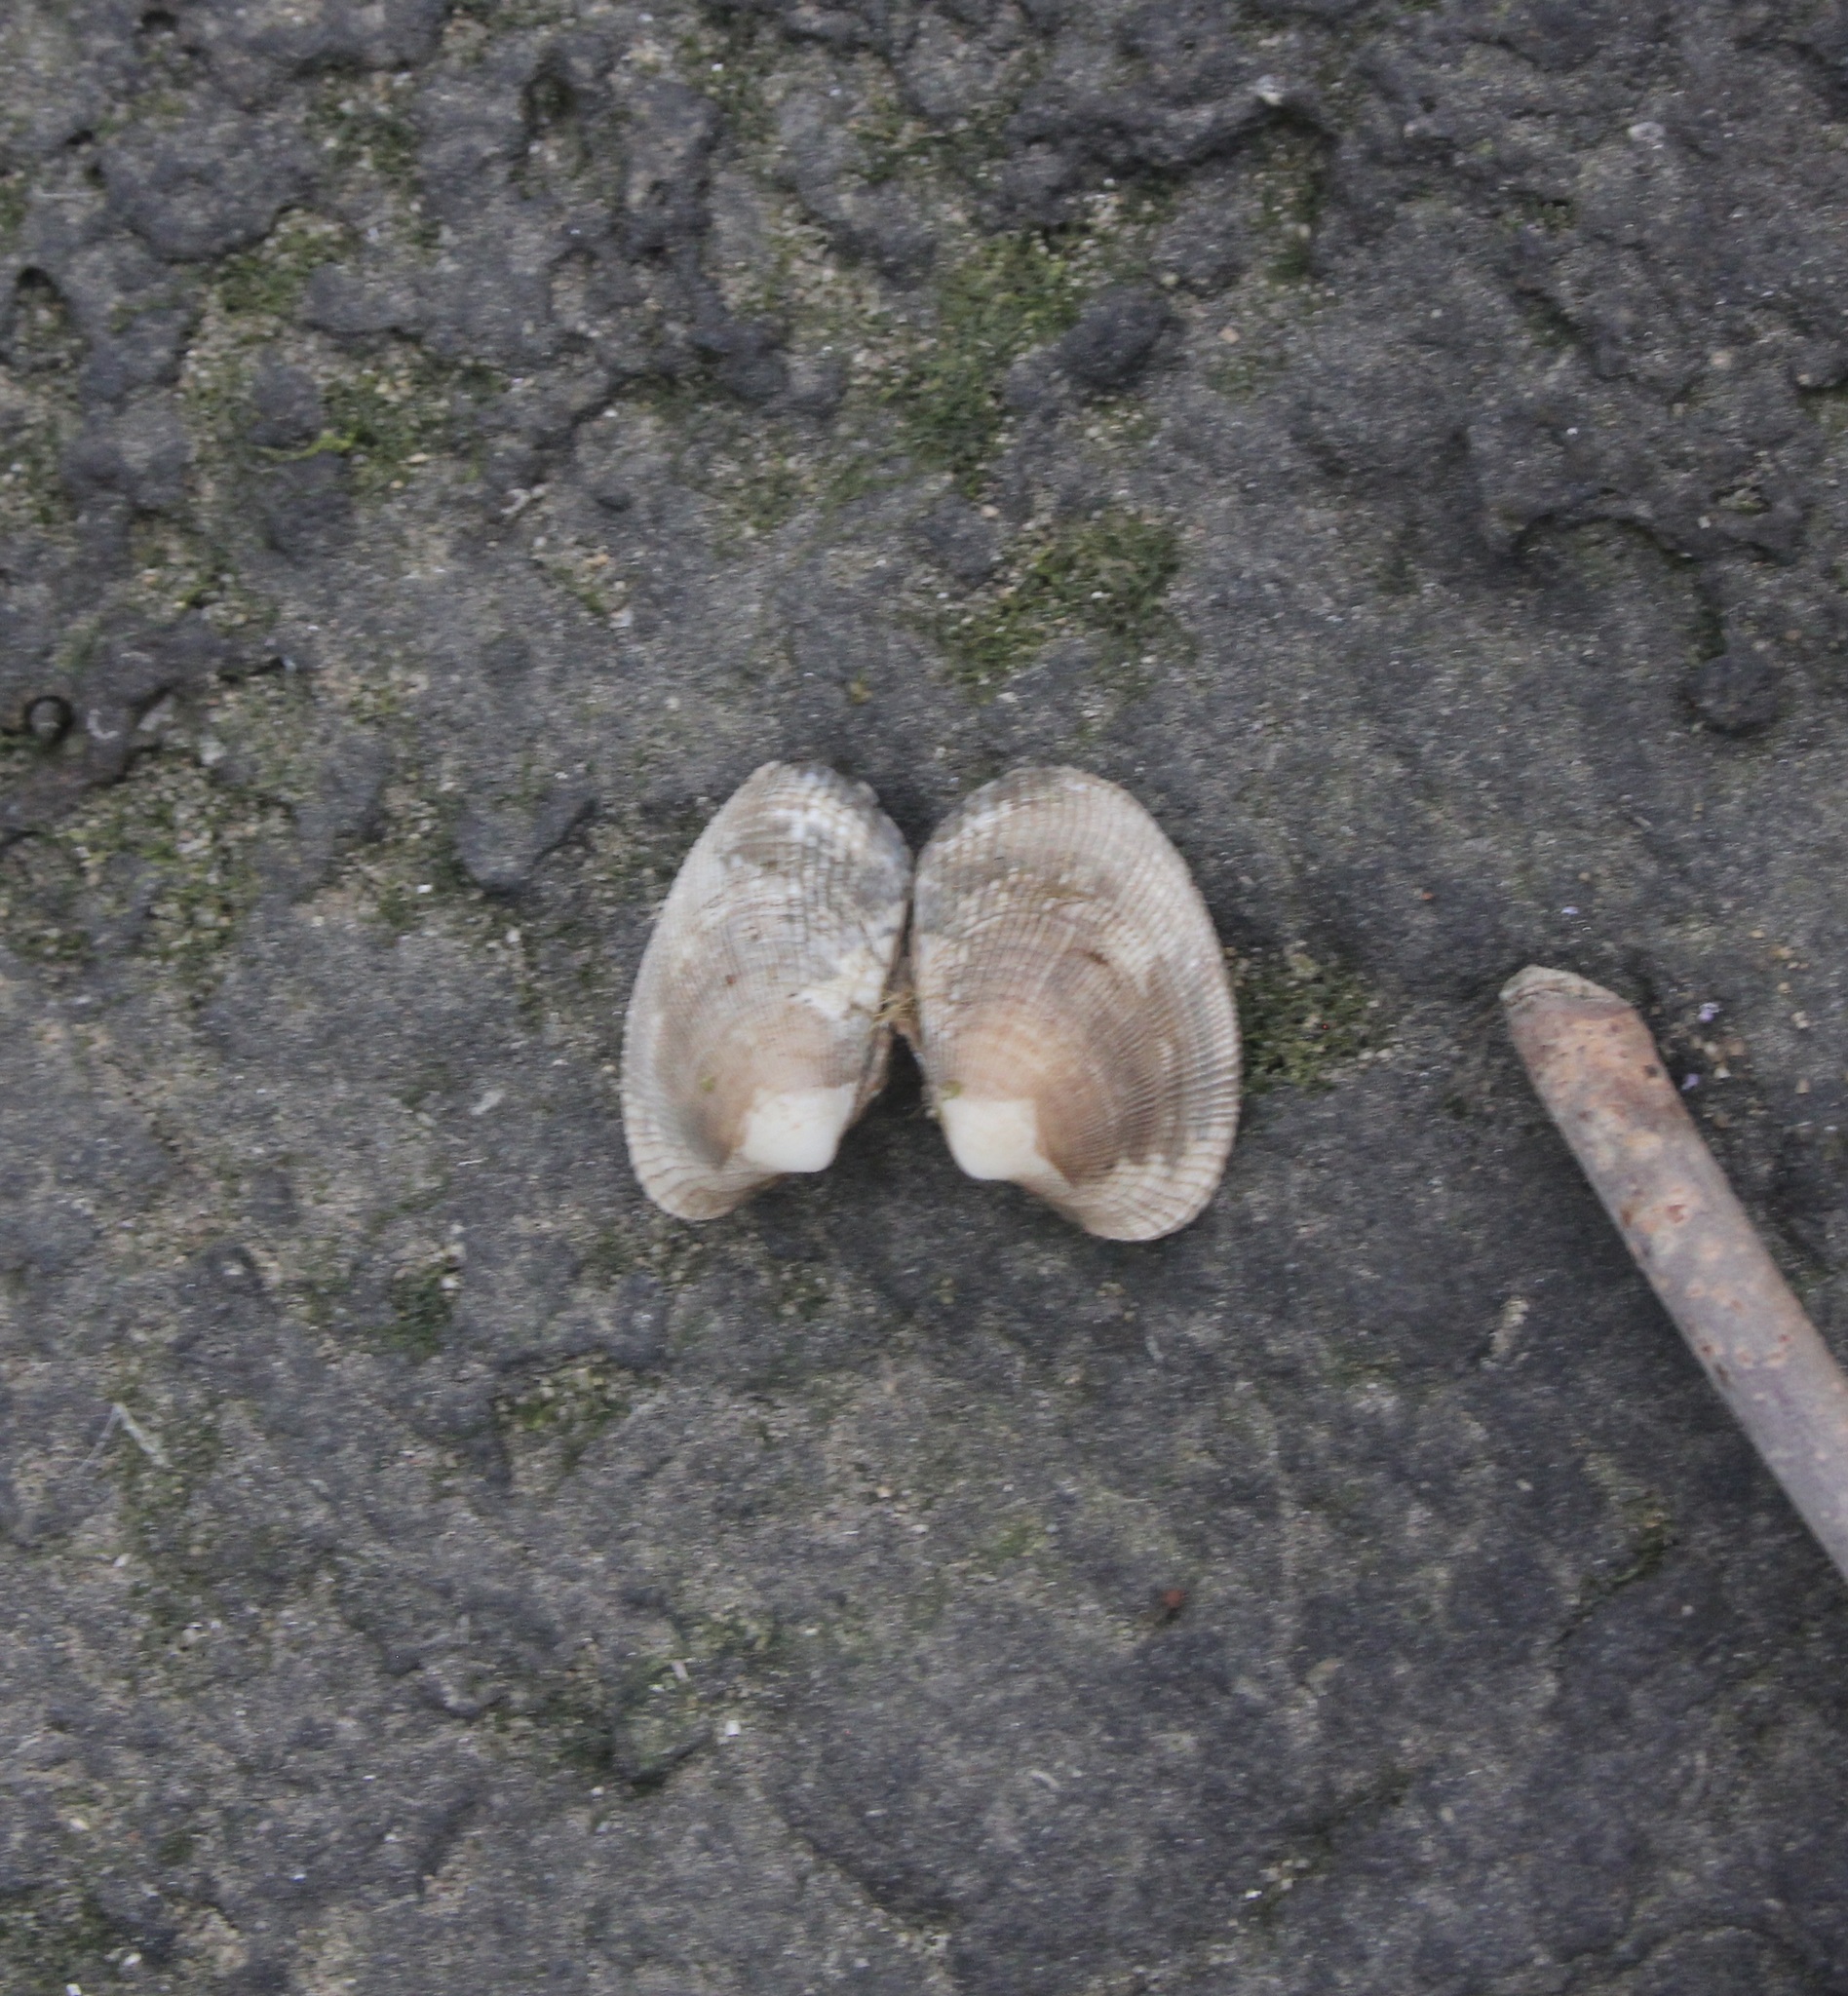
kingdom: Animalia
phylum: Mollusca
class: Bivalvia
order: Venerida
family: Veneridae
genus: Ruditapes
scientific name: Ruditapes philippinarum
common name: Manila clam
